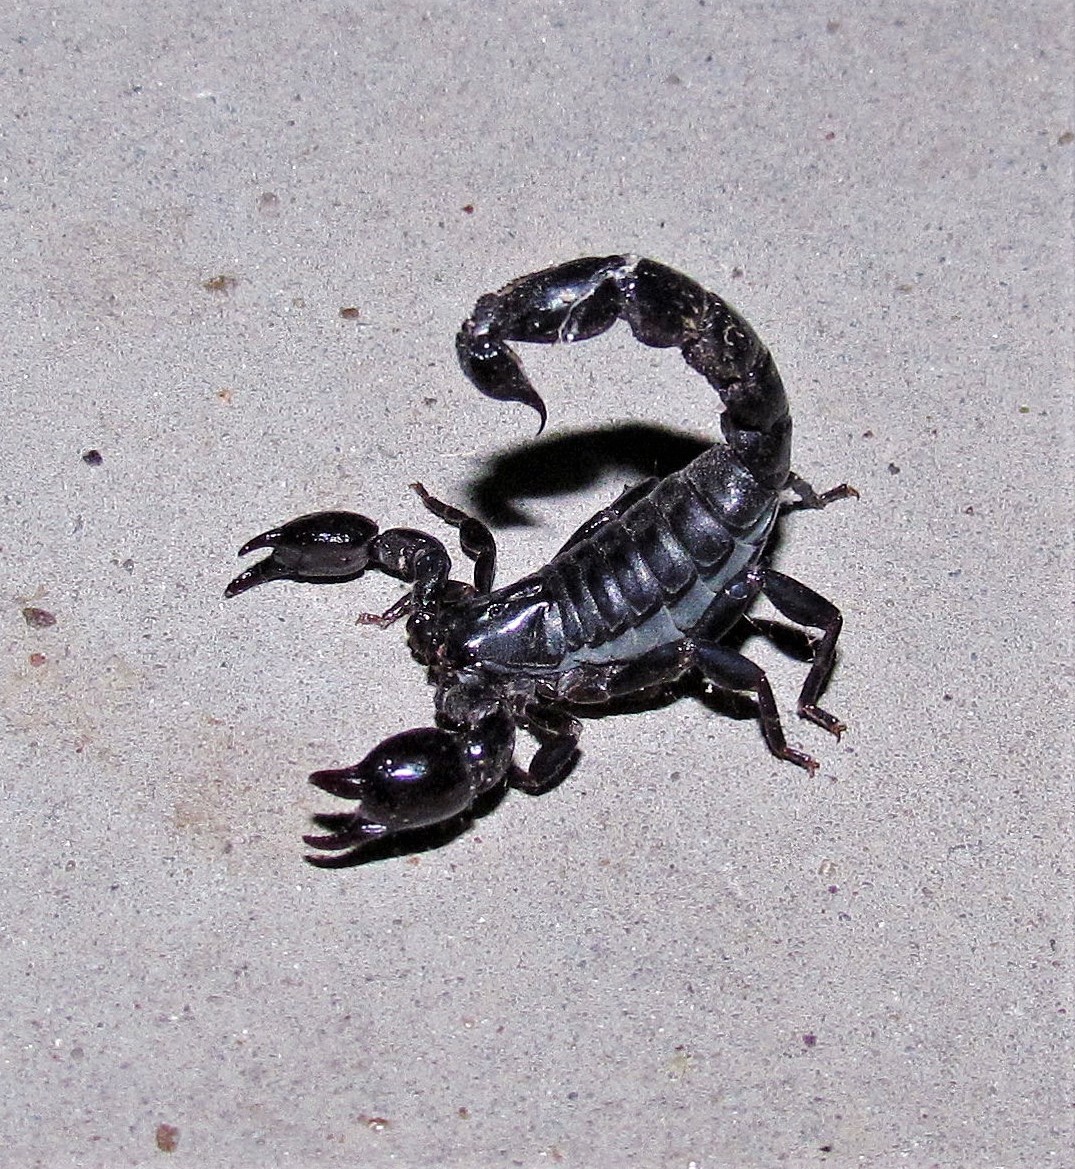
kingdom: Animalia
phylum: Arthropoda
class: Arachnida
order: Scorpiones
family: Bothriuridae
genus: Bothriurus
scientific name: Bothriurus jesuita
